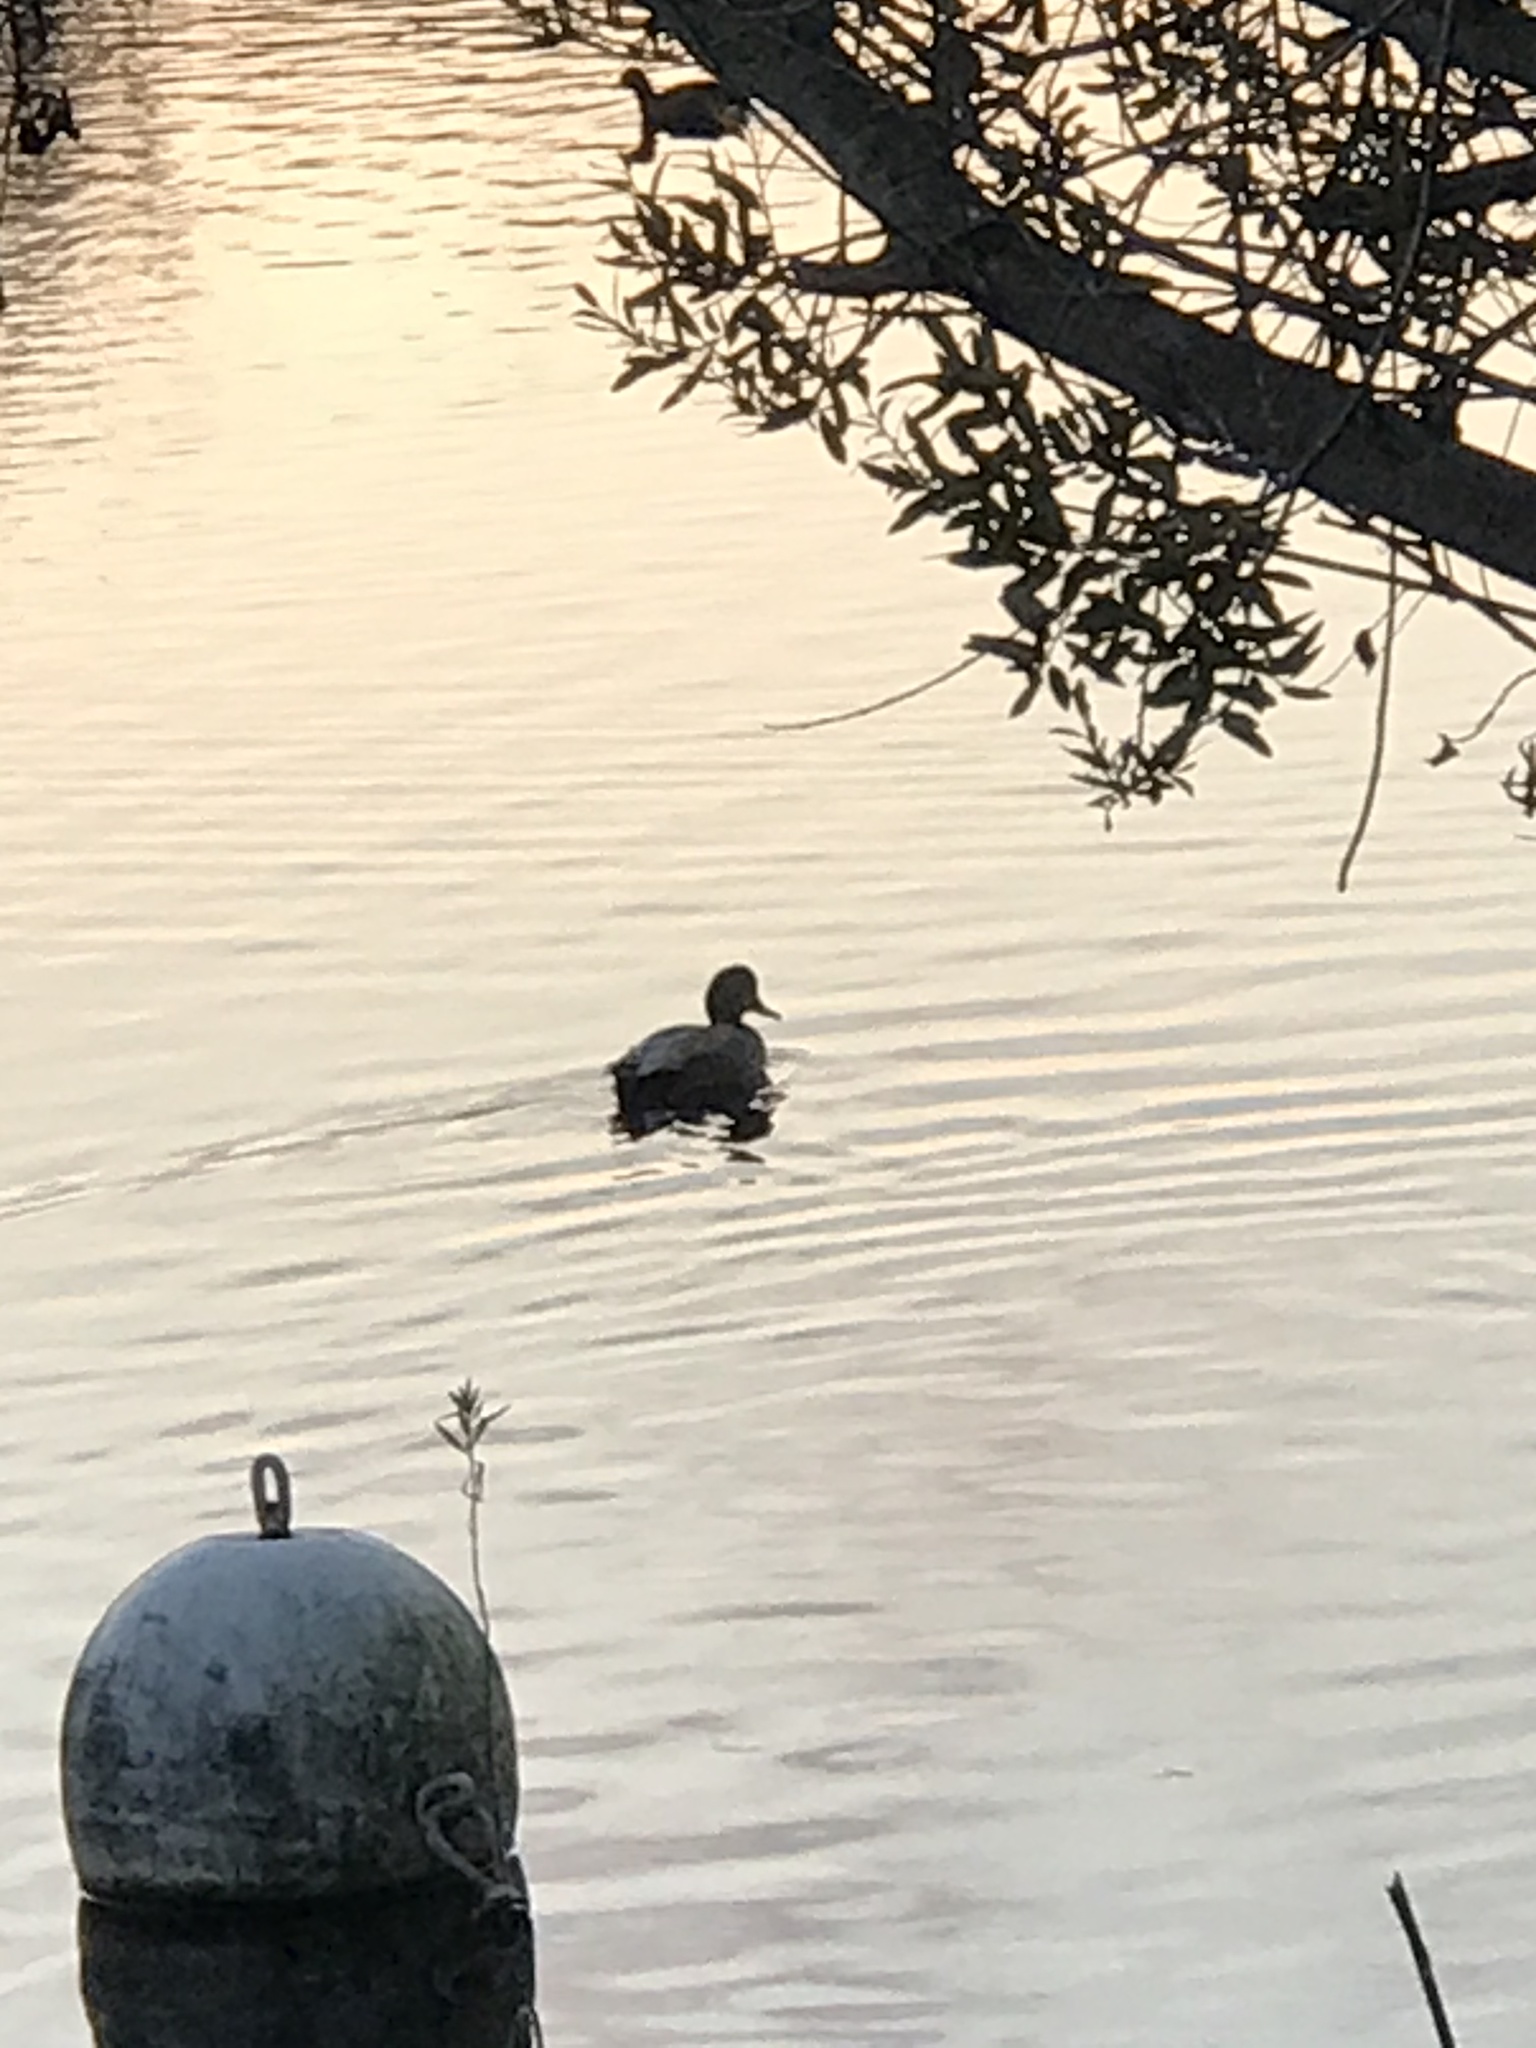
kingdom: Animalia
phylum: Chordata
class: Aves
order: Anseriformes
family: Anatidae
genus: Mareca
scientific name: Mareca strepera
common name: Gadwall
